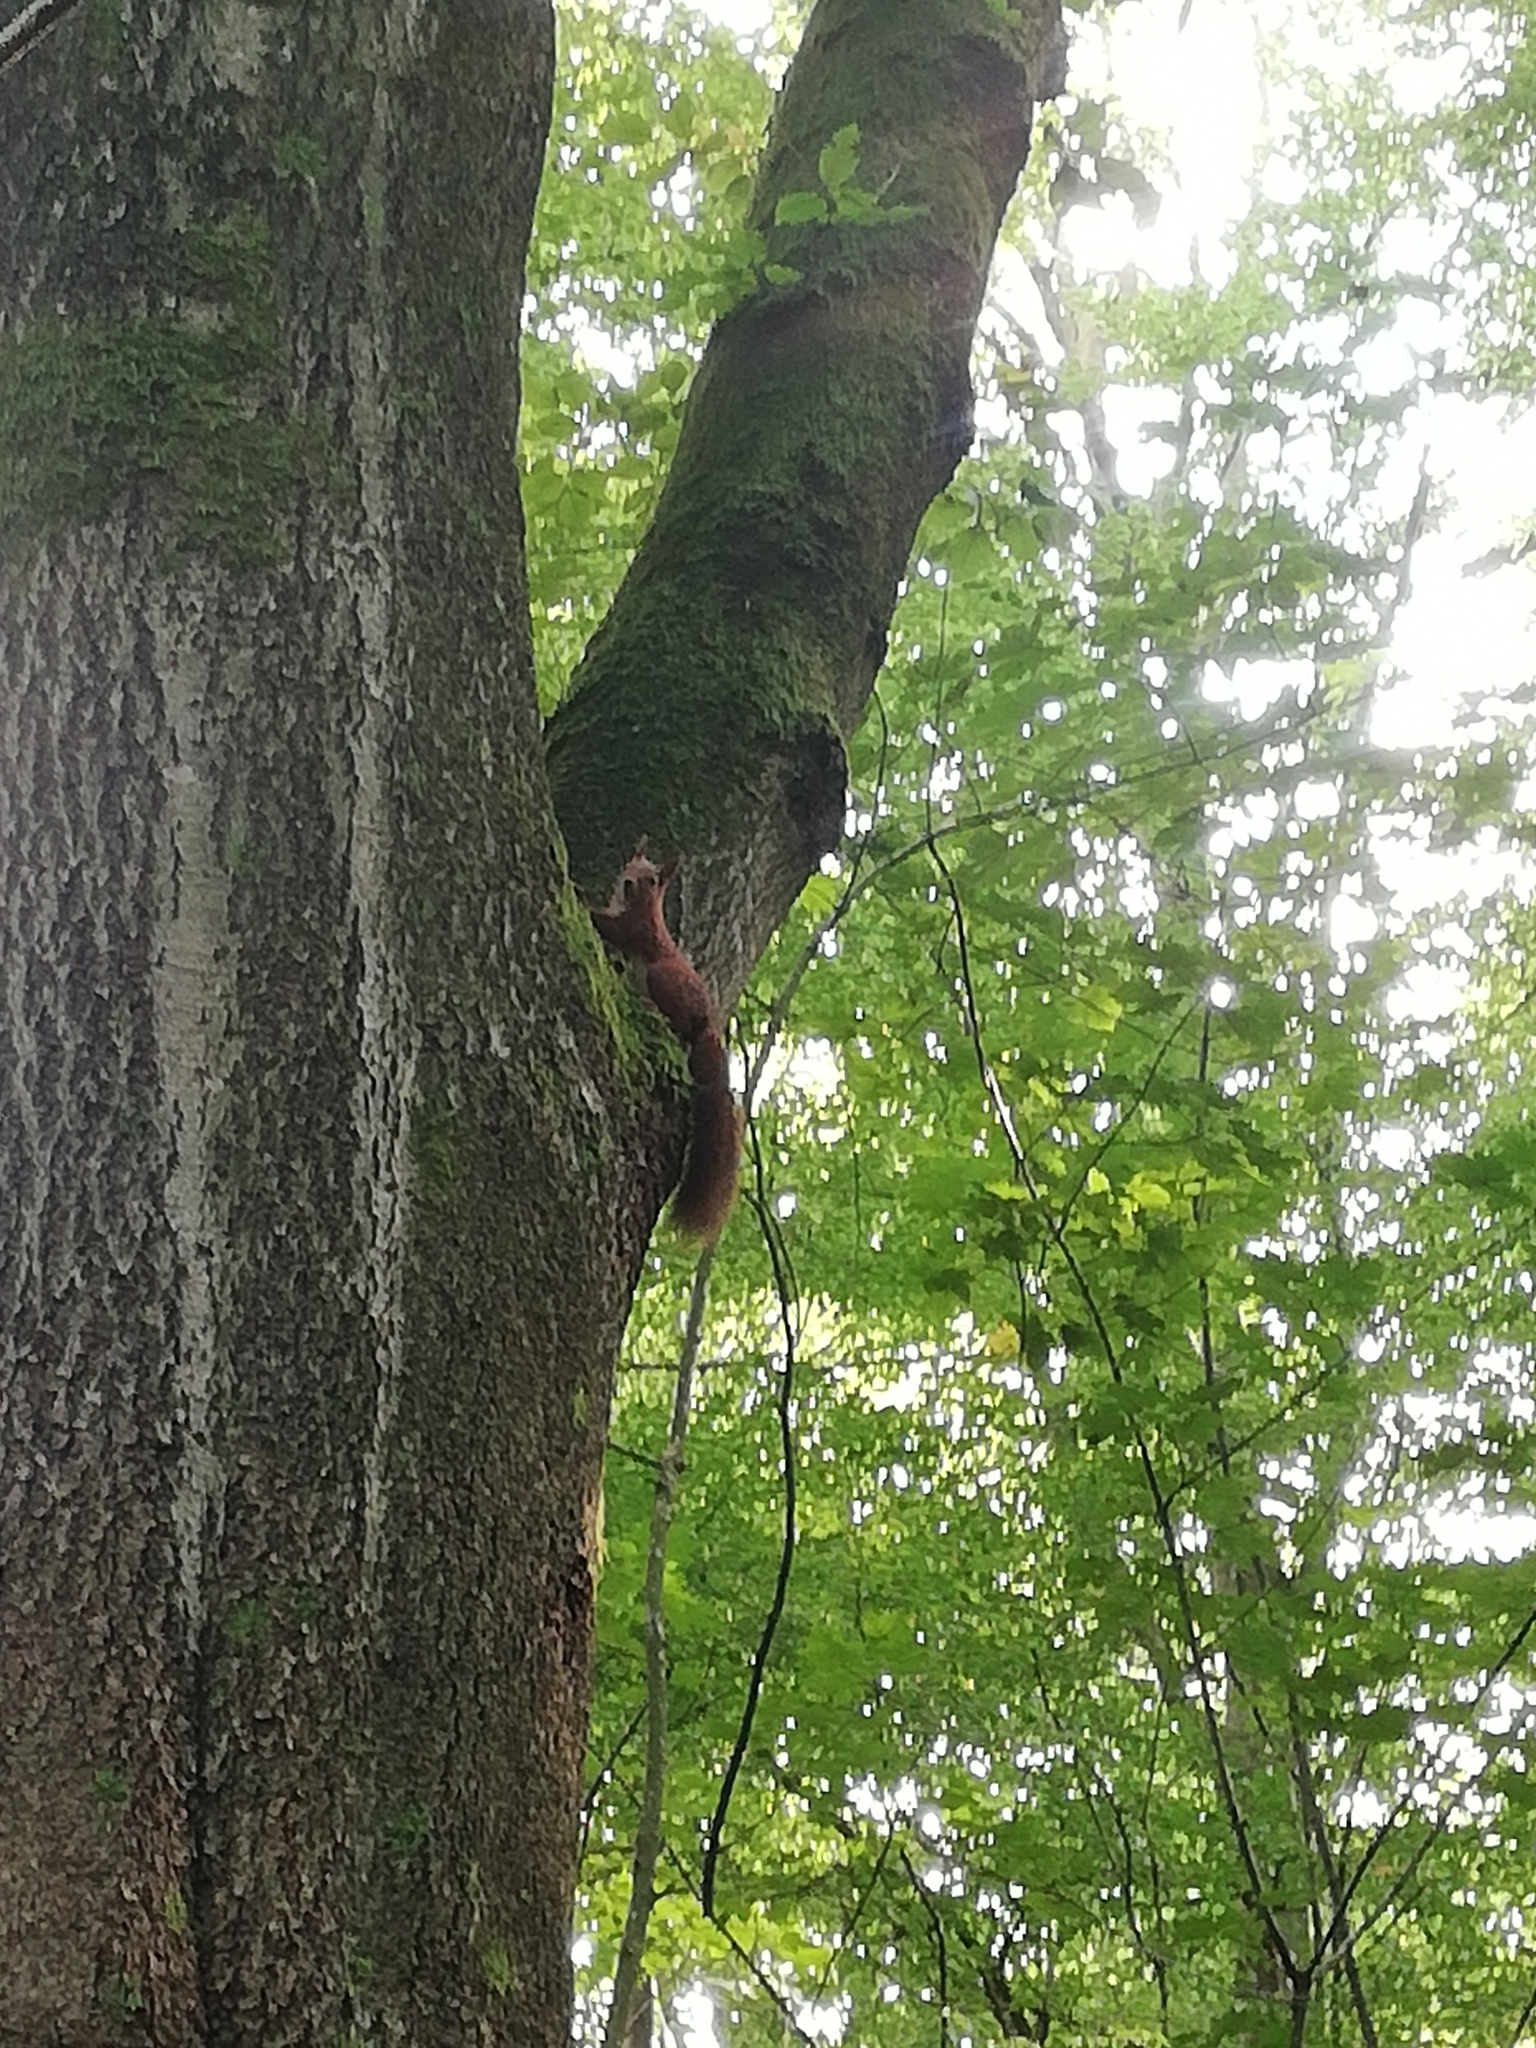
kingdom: Animalia
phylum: Chordata
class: Mammalia
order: Rodentia
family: Sciuridae
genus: Sciurus
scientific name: Sciurus vulgaris
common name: Eurasian red squirrel
